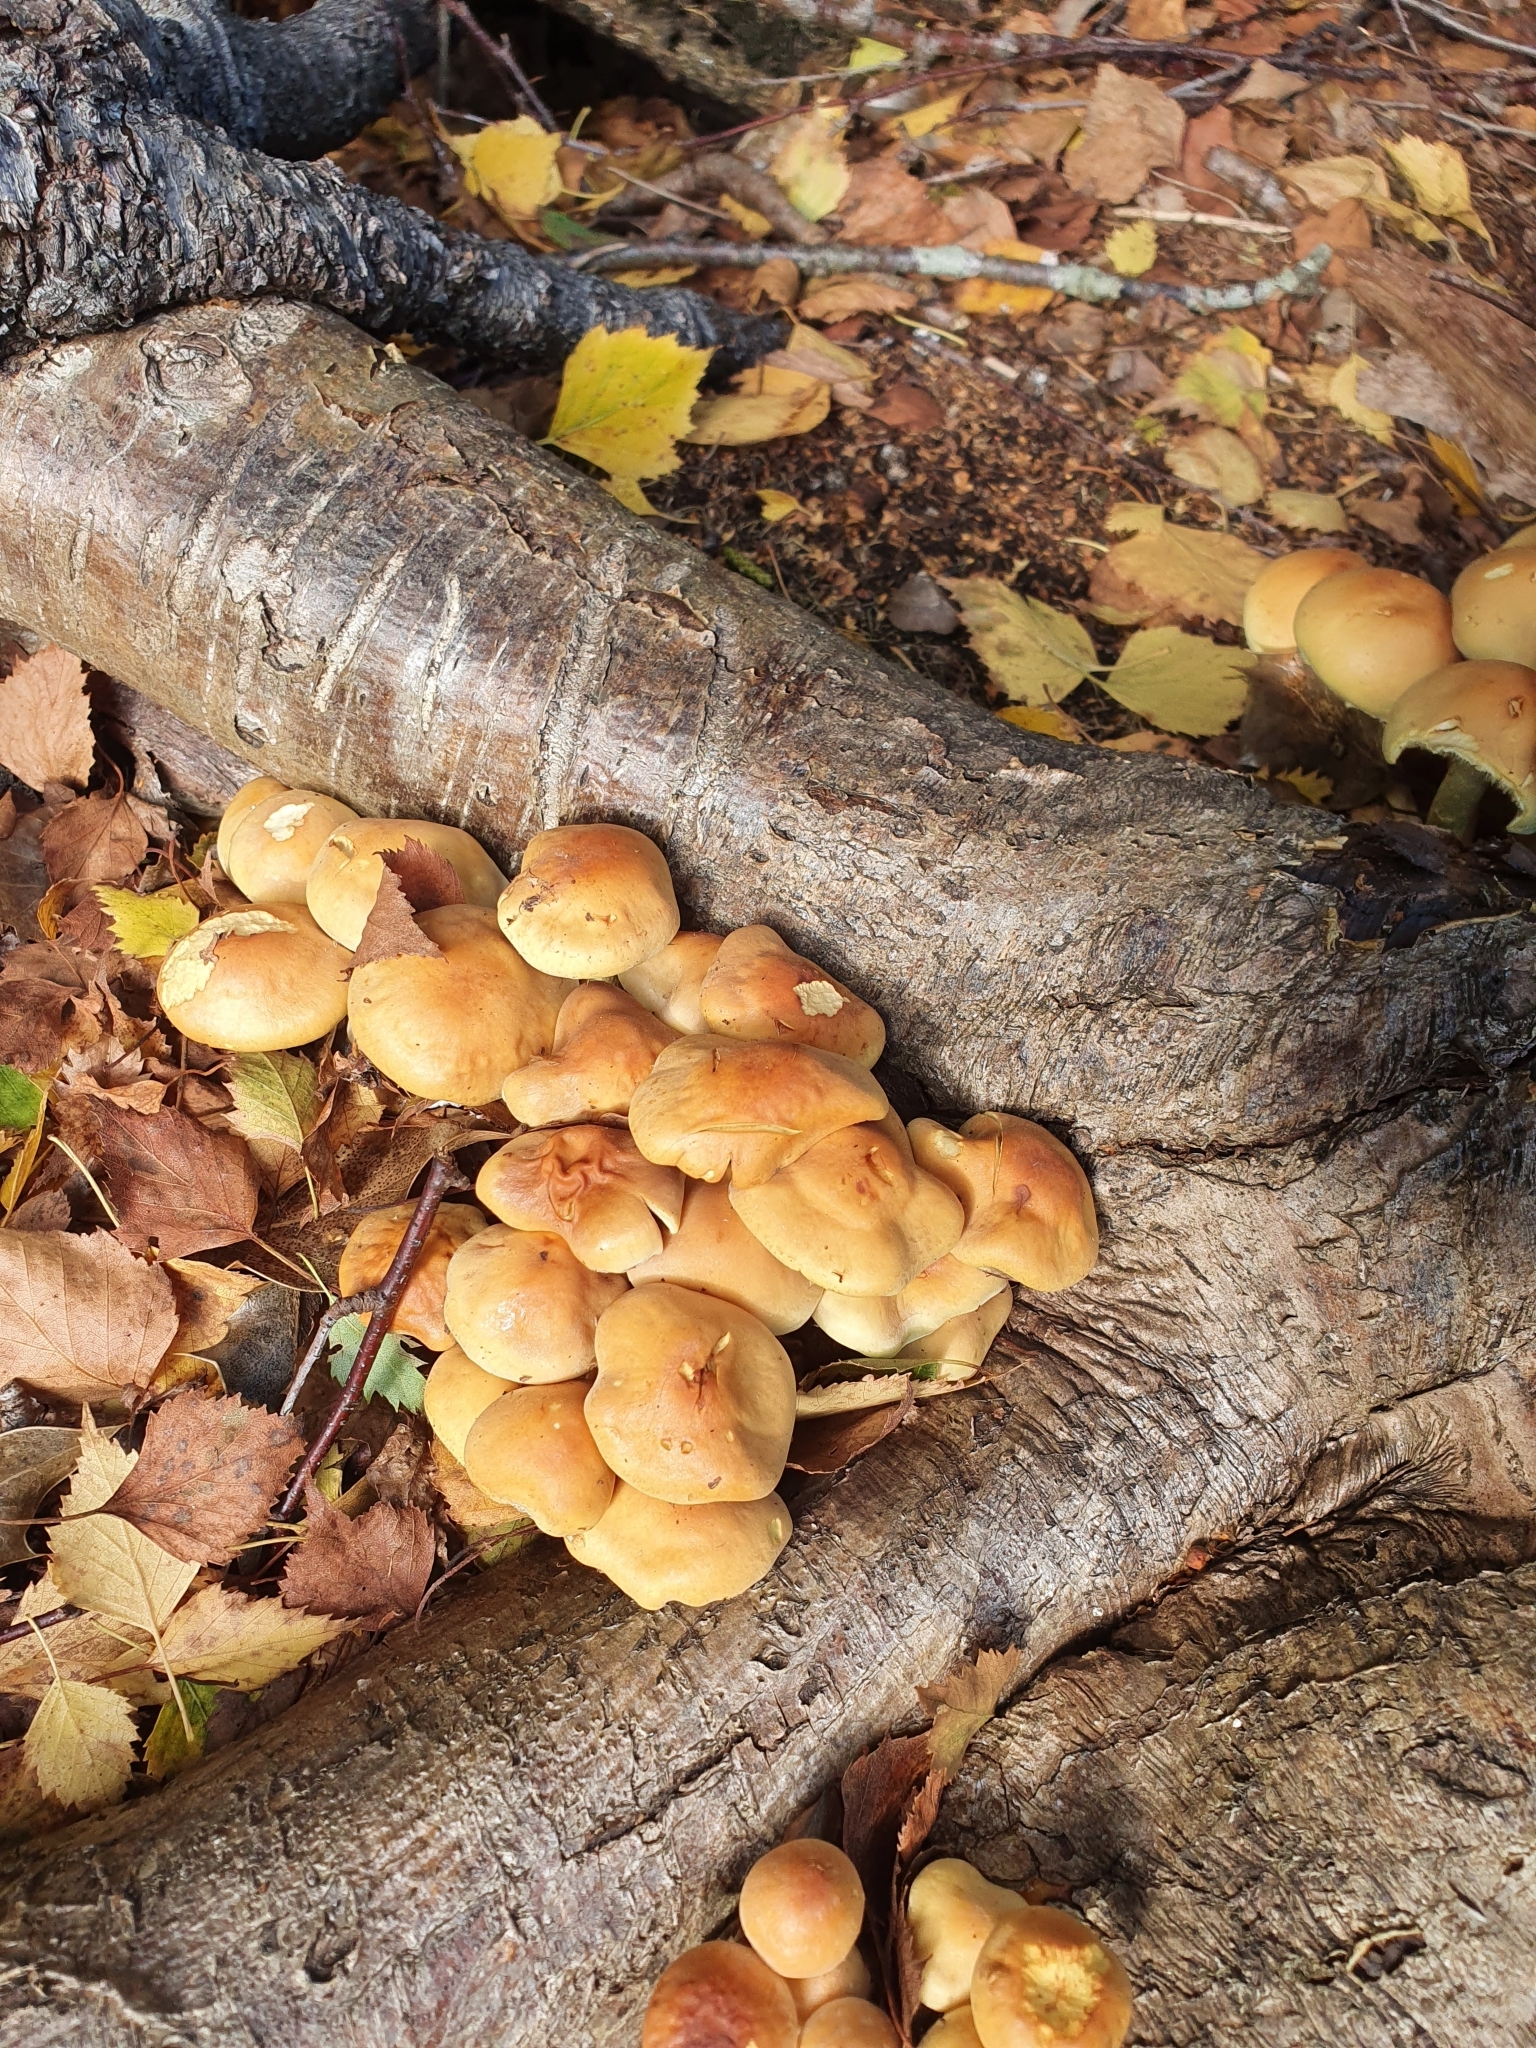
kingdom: Fungi
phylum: Basidiomycota
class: Agaricomycetes
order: Agaricales
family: Strophariaceae
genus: Hypholoma
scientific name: Hypholoma fasciculare
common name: Sulphur tuft
